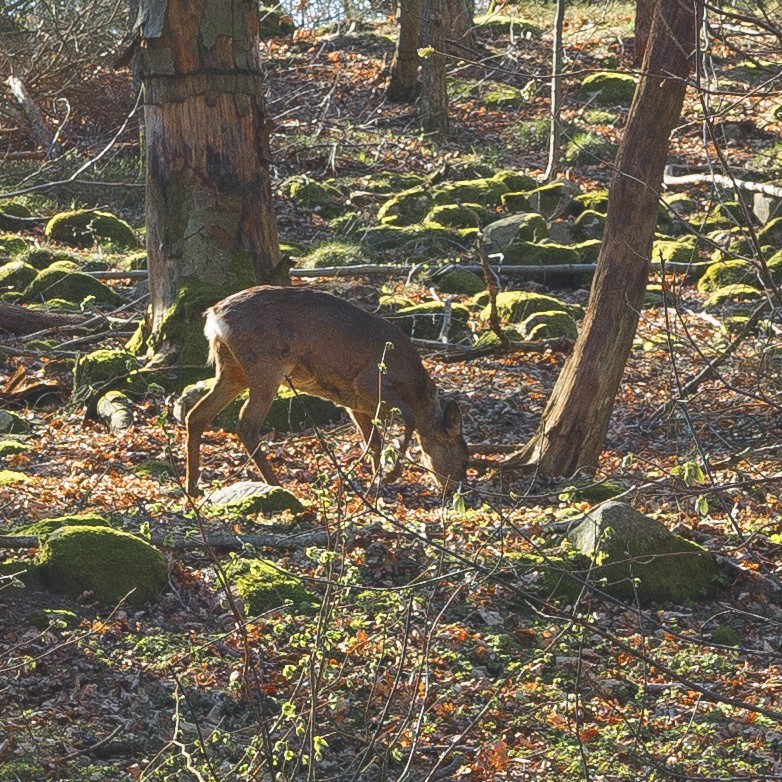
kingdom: Animalia
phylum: Chordata
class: Mammalia
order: Artiodactyla
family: Cervidae
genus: Capreolus
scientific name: Capreolus capreolus
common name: Western roe deer
